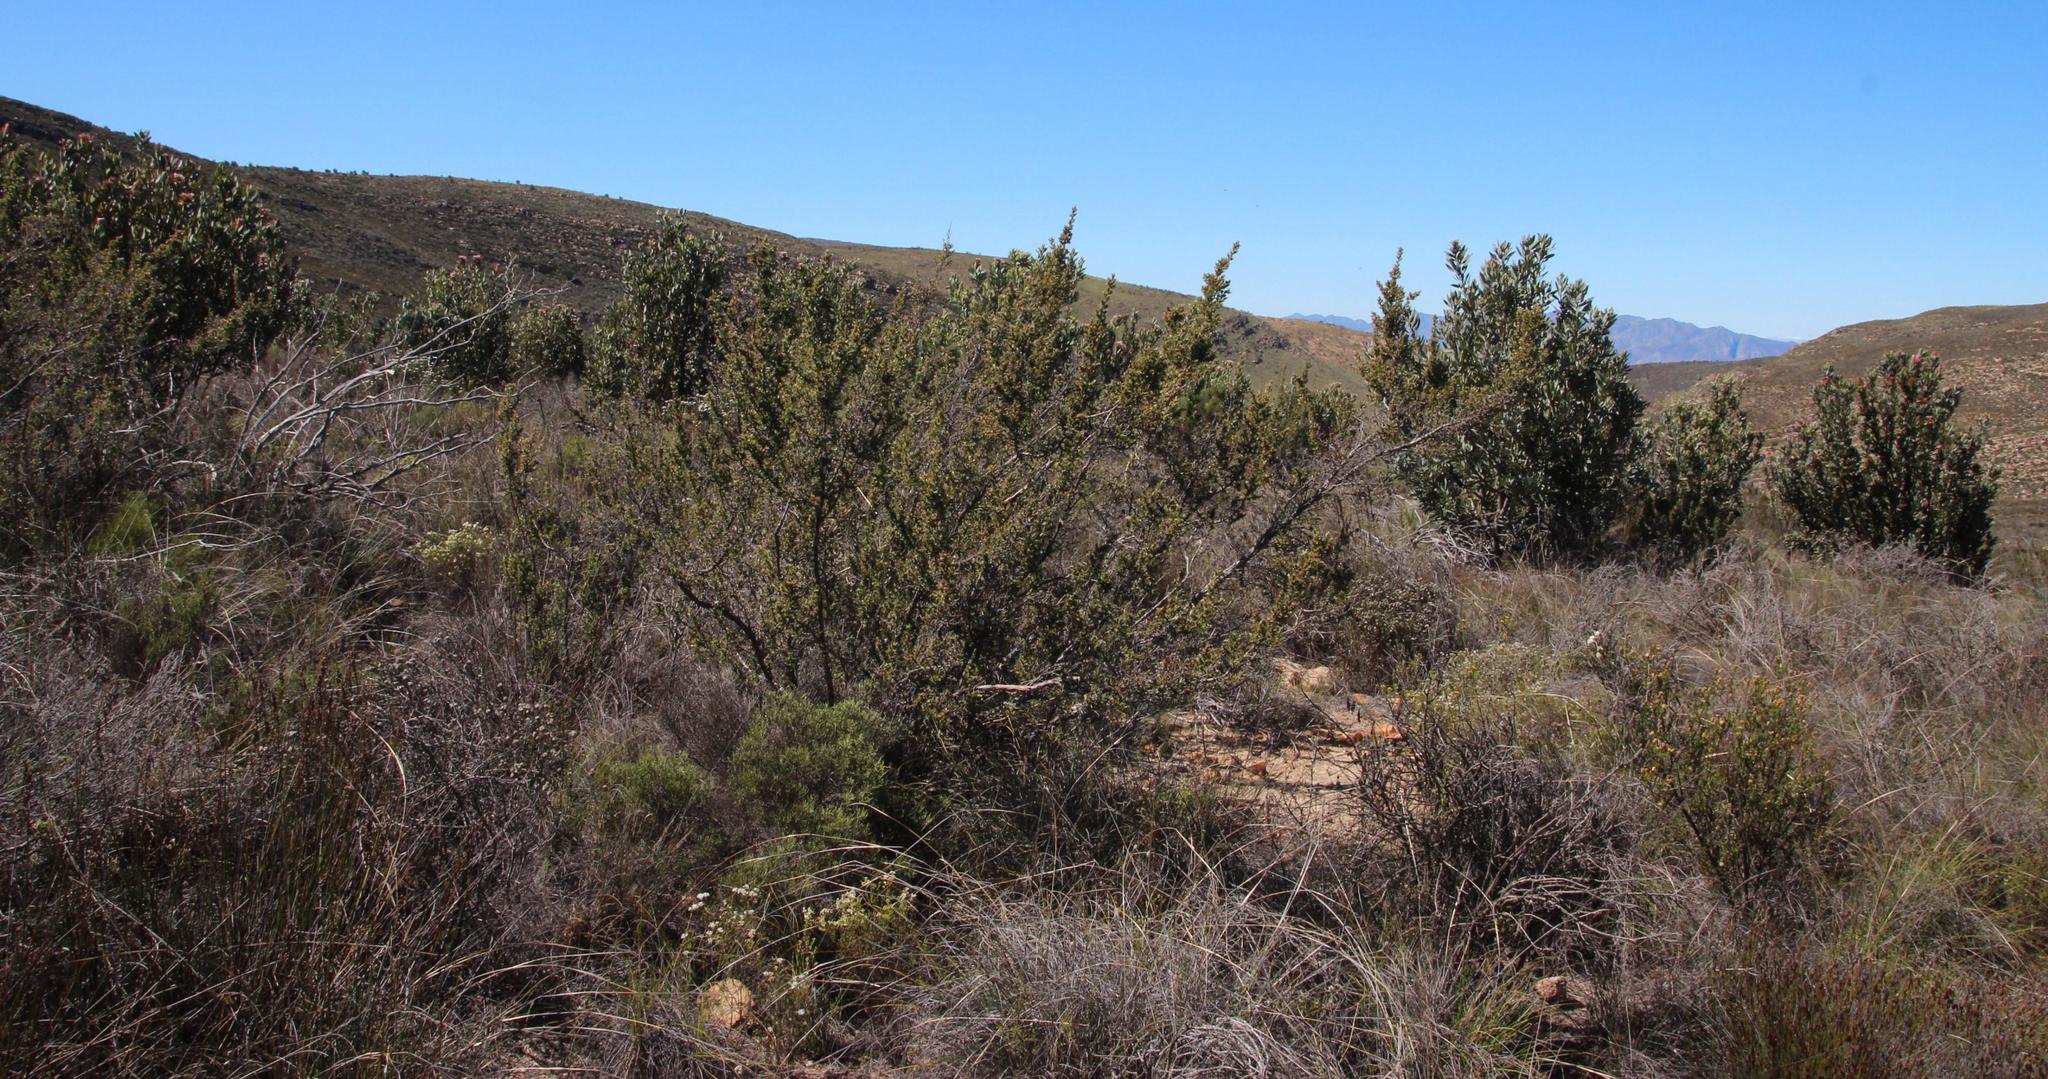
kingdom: Plantae
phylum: Tracheophyta
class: Magnoliopsida
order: Rosales
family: Rosaceae
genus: Cliffortia
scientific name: Cliffortia ruscifolia
